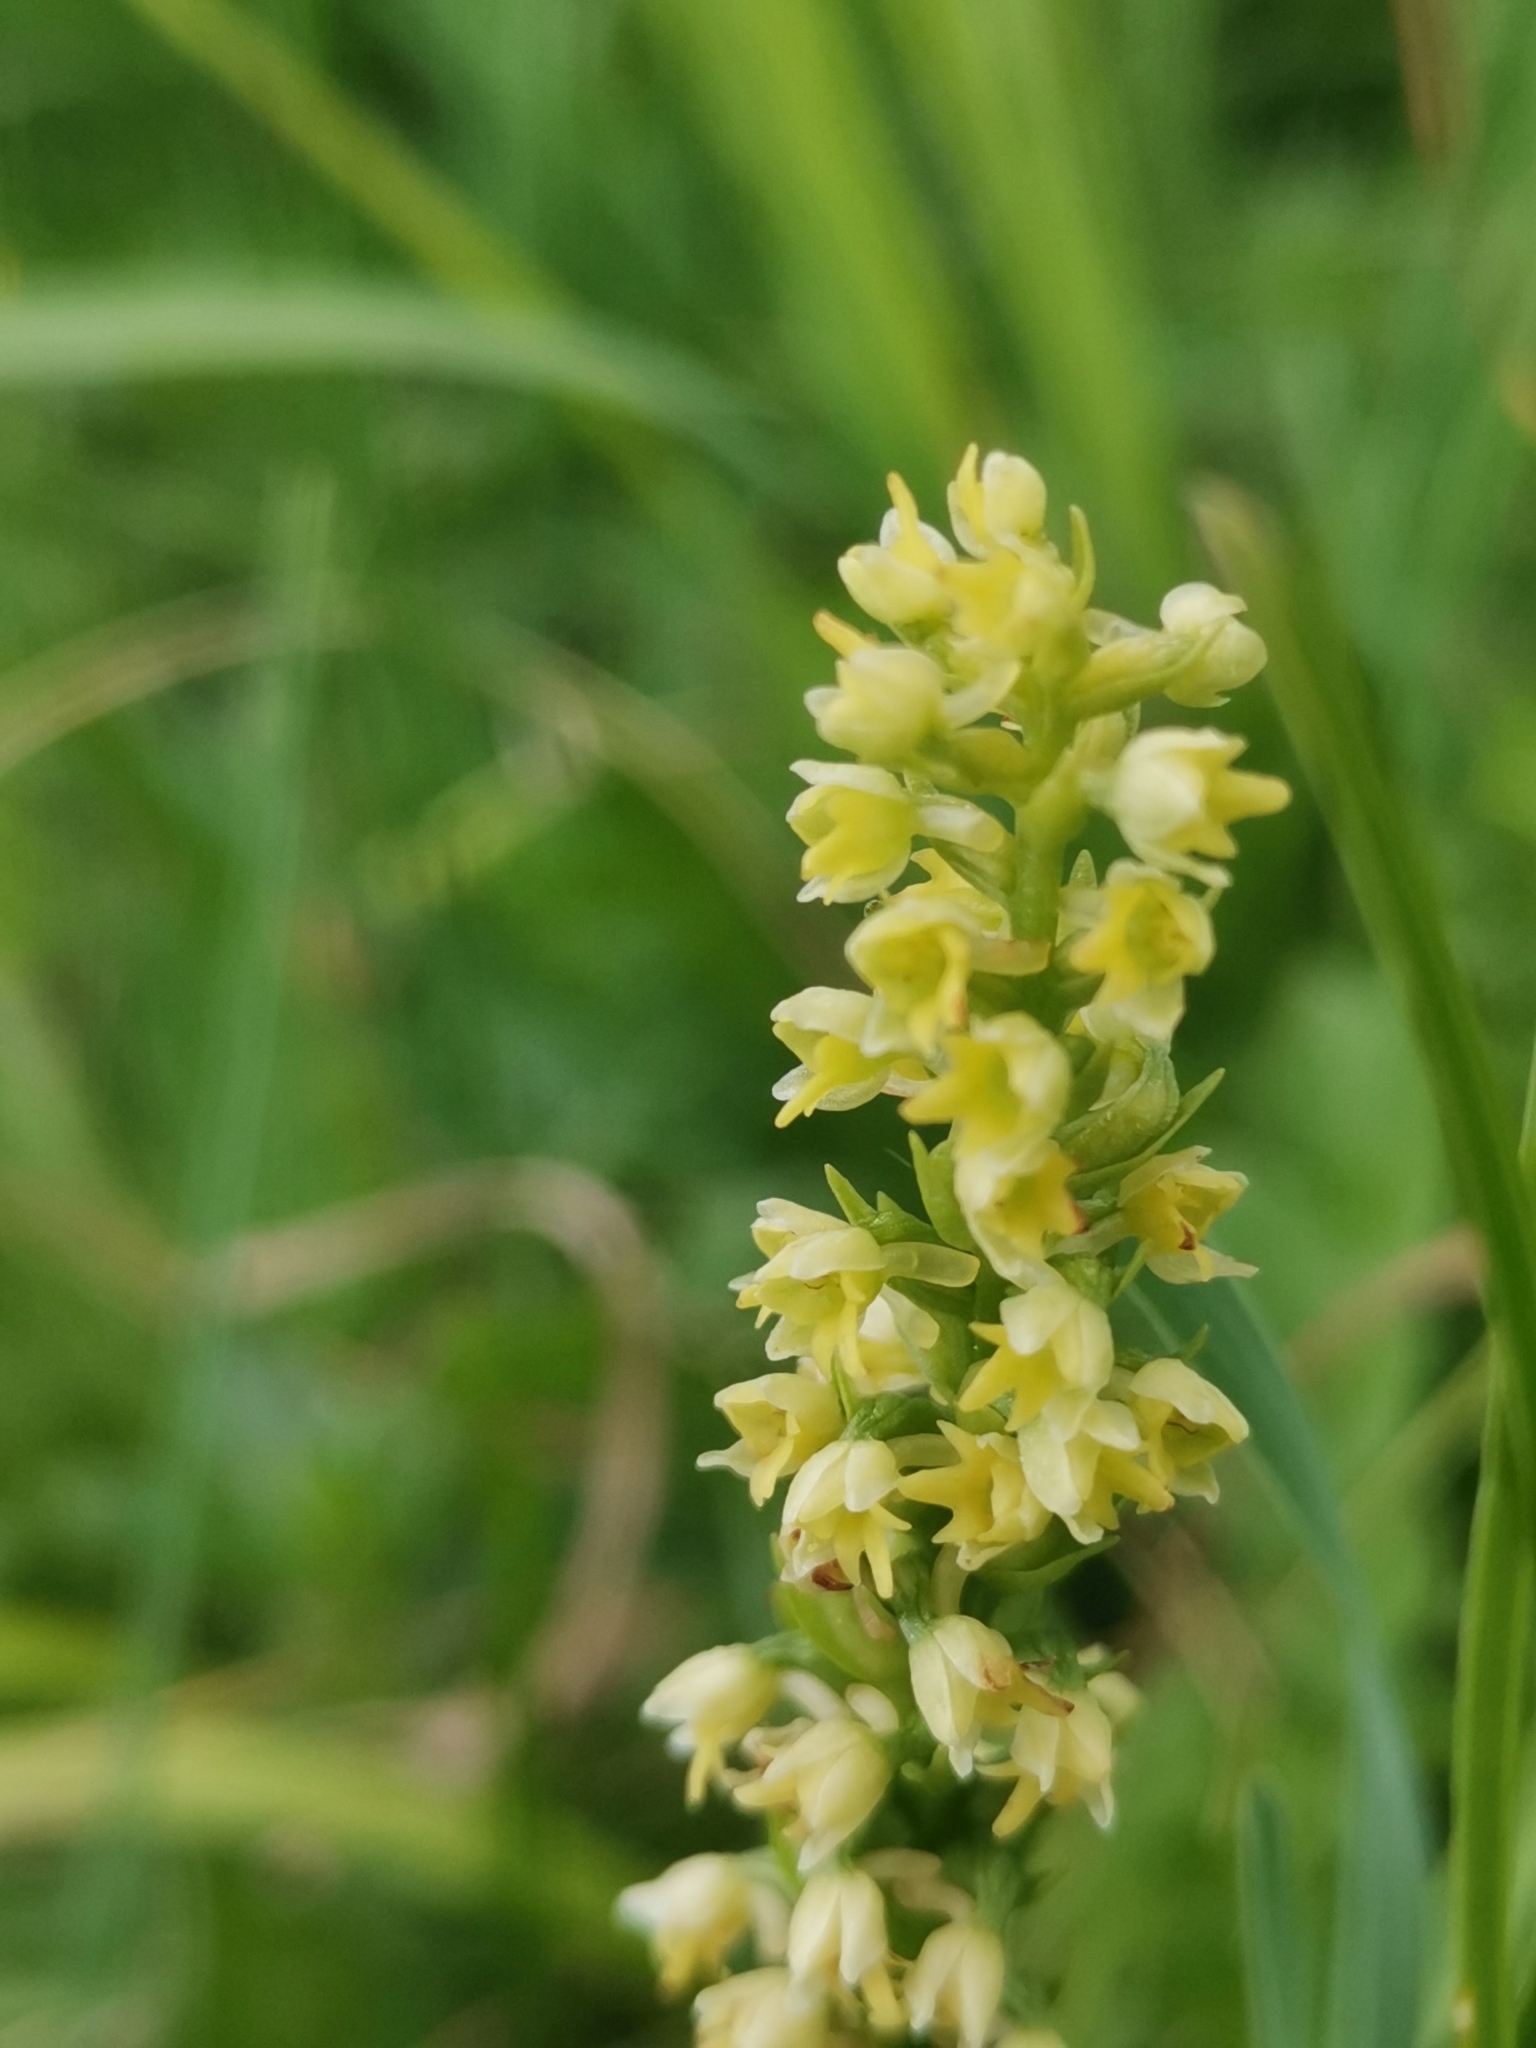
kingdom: Plantae
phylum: Tracheophyta
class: Liliopsida
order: Asparagales
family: Orchidaceae
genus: Pseudorchis
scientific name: Pseudorchis albida
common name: Small-white orchid
